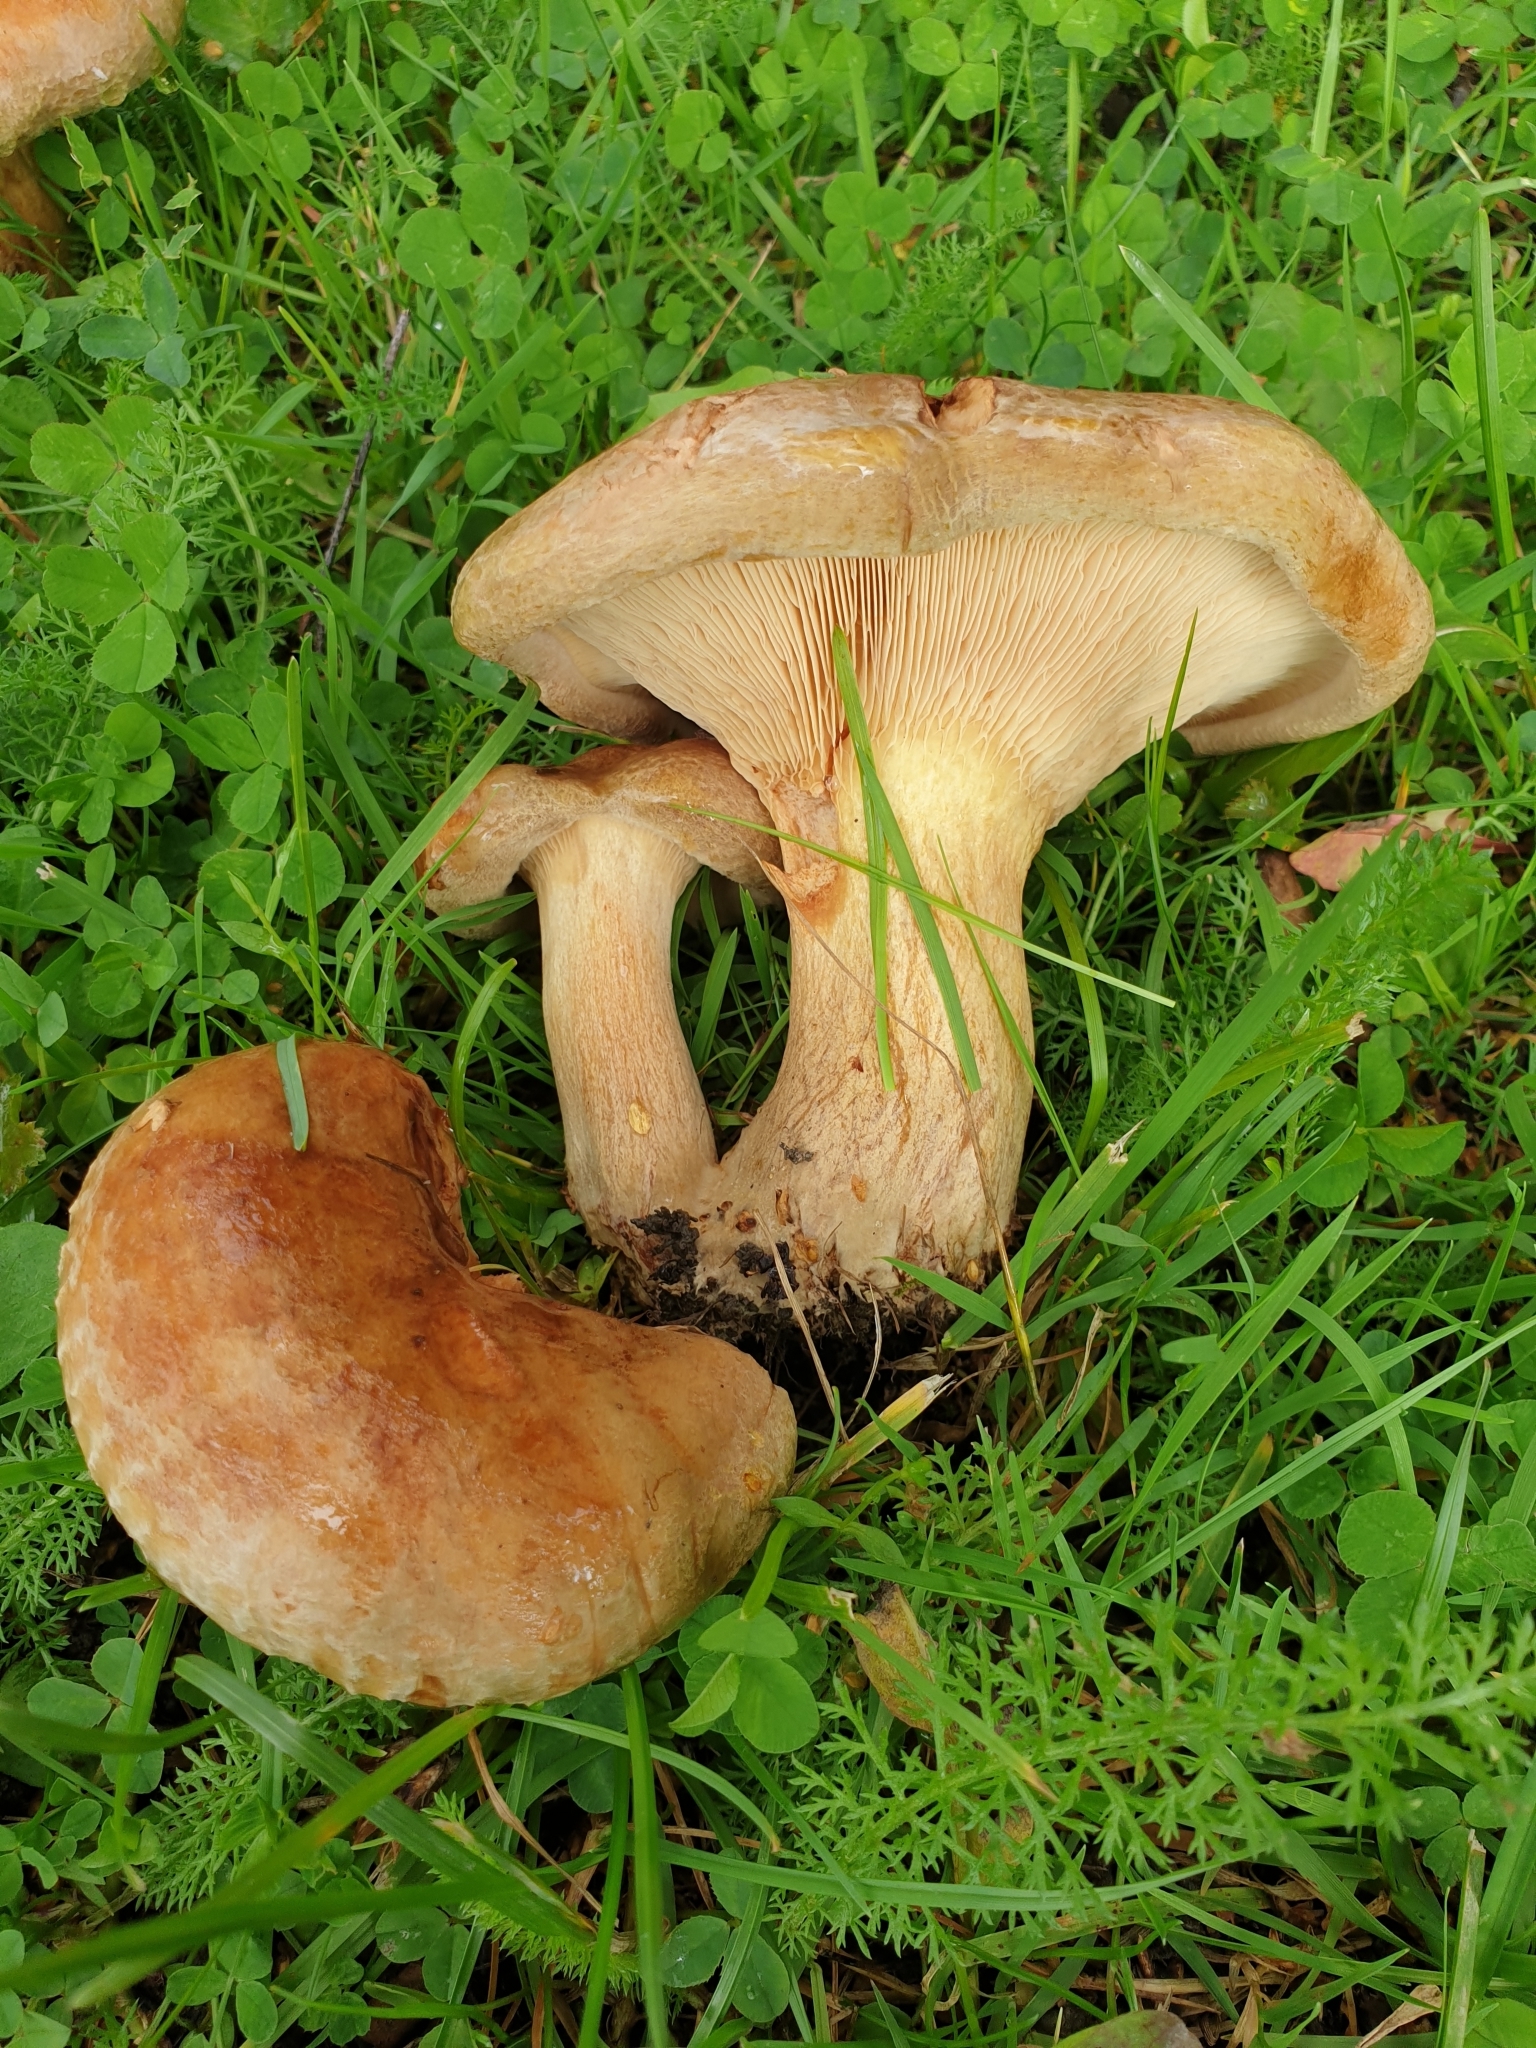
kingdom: Fungi
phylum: Basidiomycota
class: Agaricomycetes
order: Boletales
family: Paxillaceae
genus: Paxillus
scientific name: Paxillus involutus
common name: Brown roll rim
